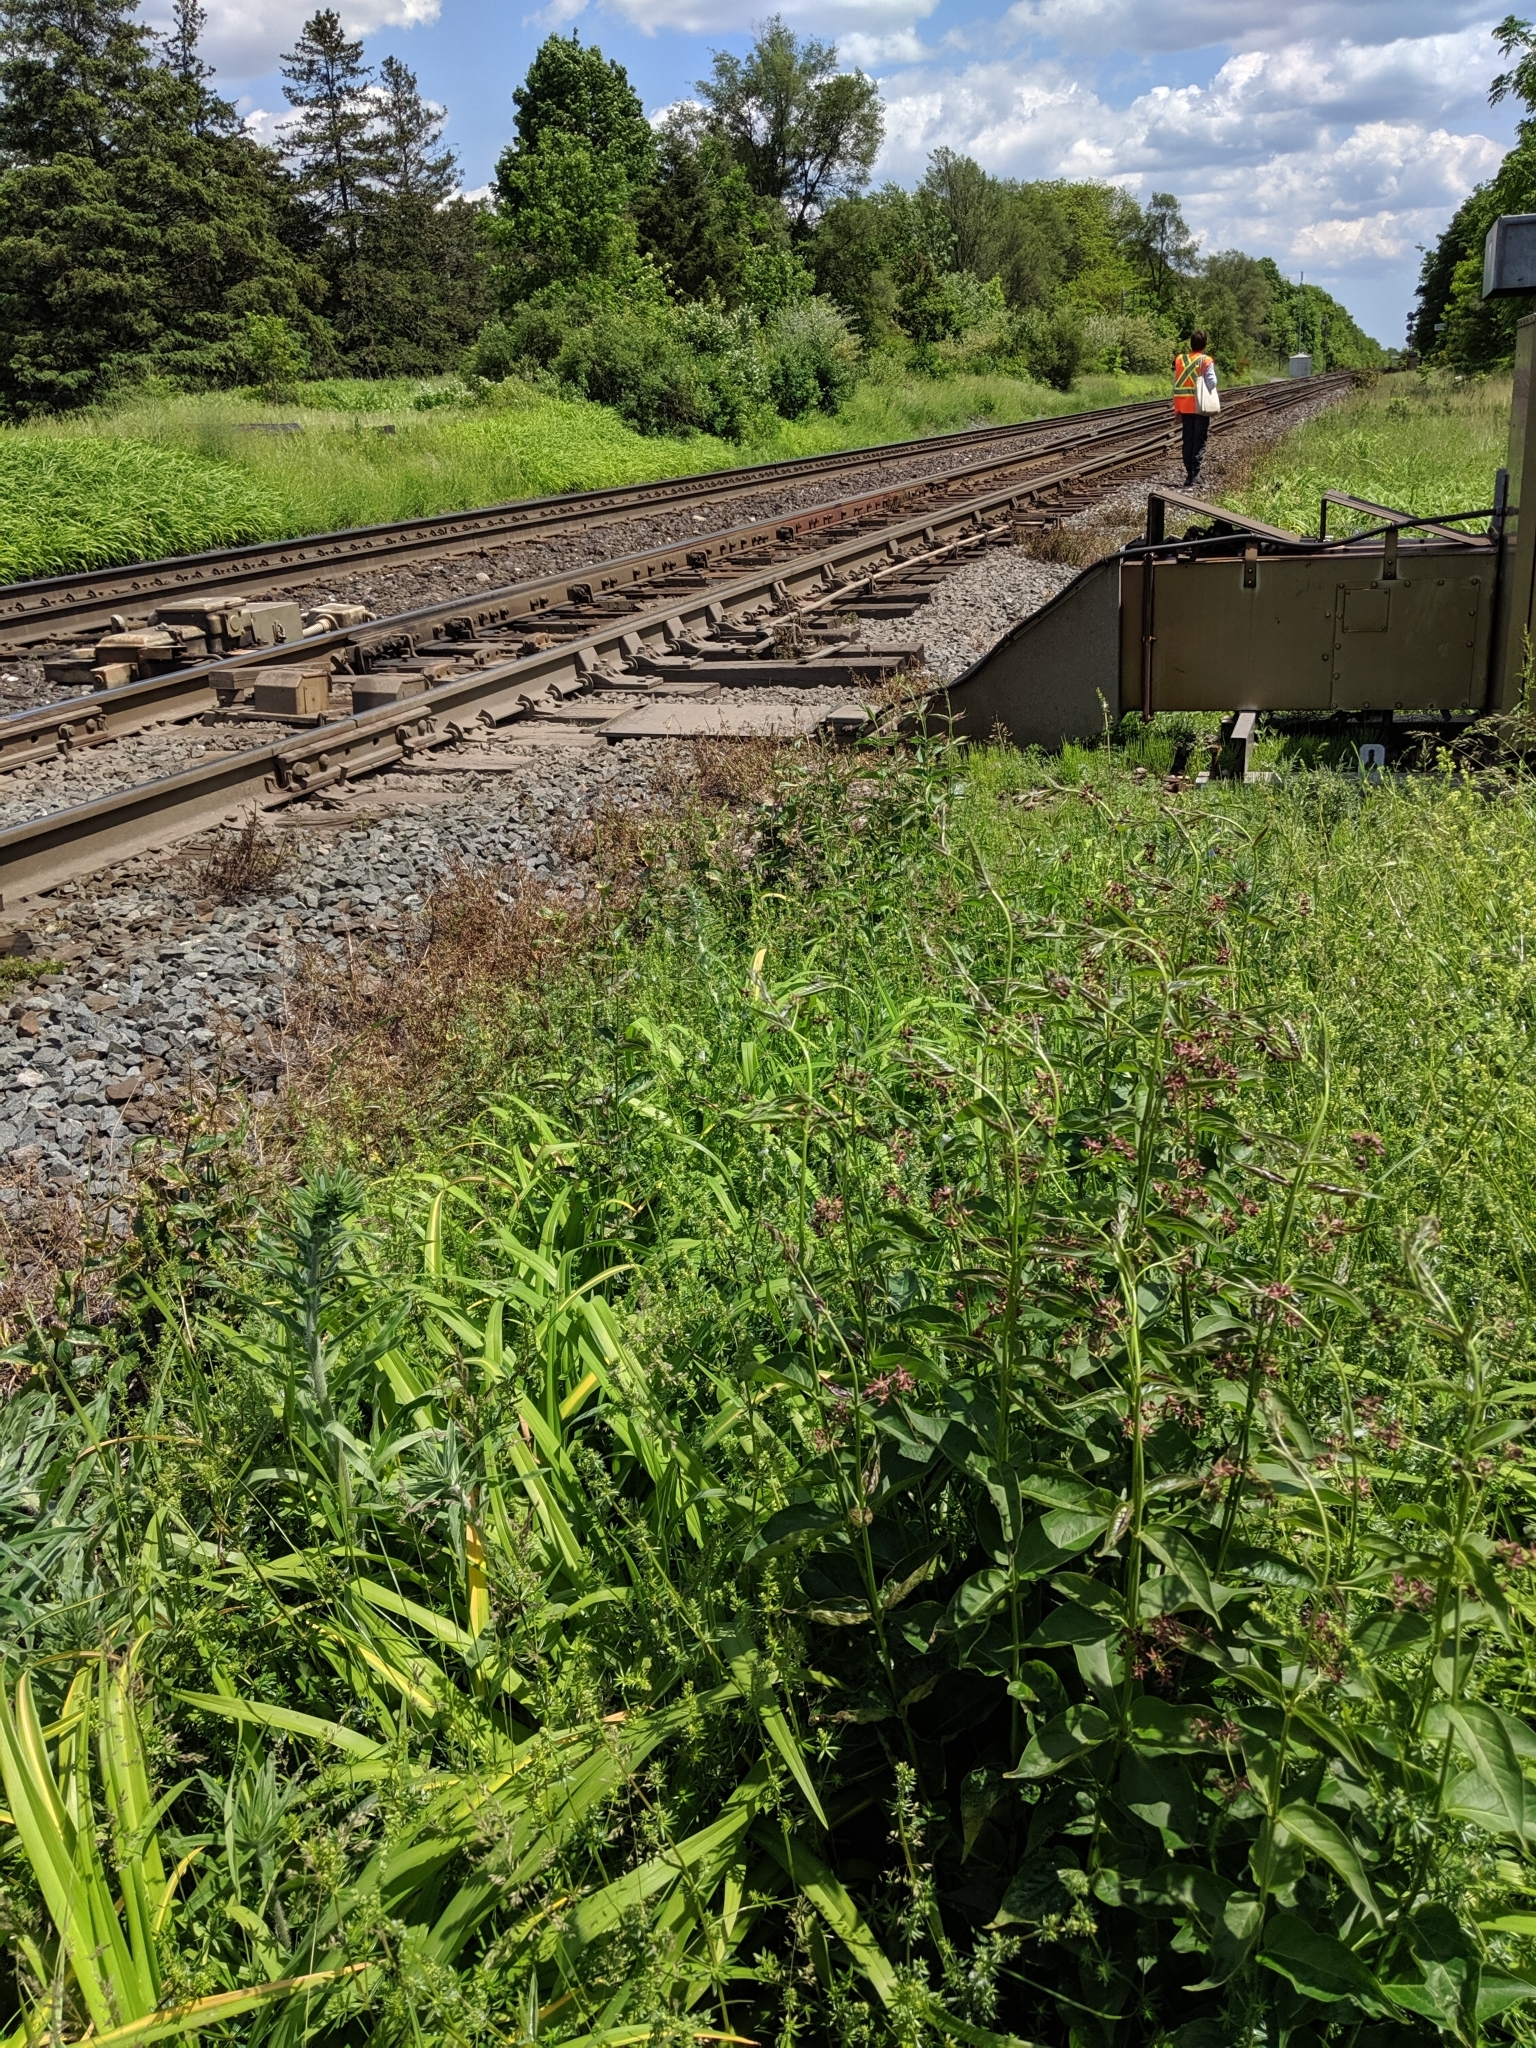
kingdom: Plantae
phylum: Tracheophyta
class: Magnoliopsida
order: Gentianales
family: Apocynaceae
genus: Vincetoxicum
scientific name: Vincetoxicum rossicum
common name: Dog-strangling vine
